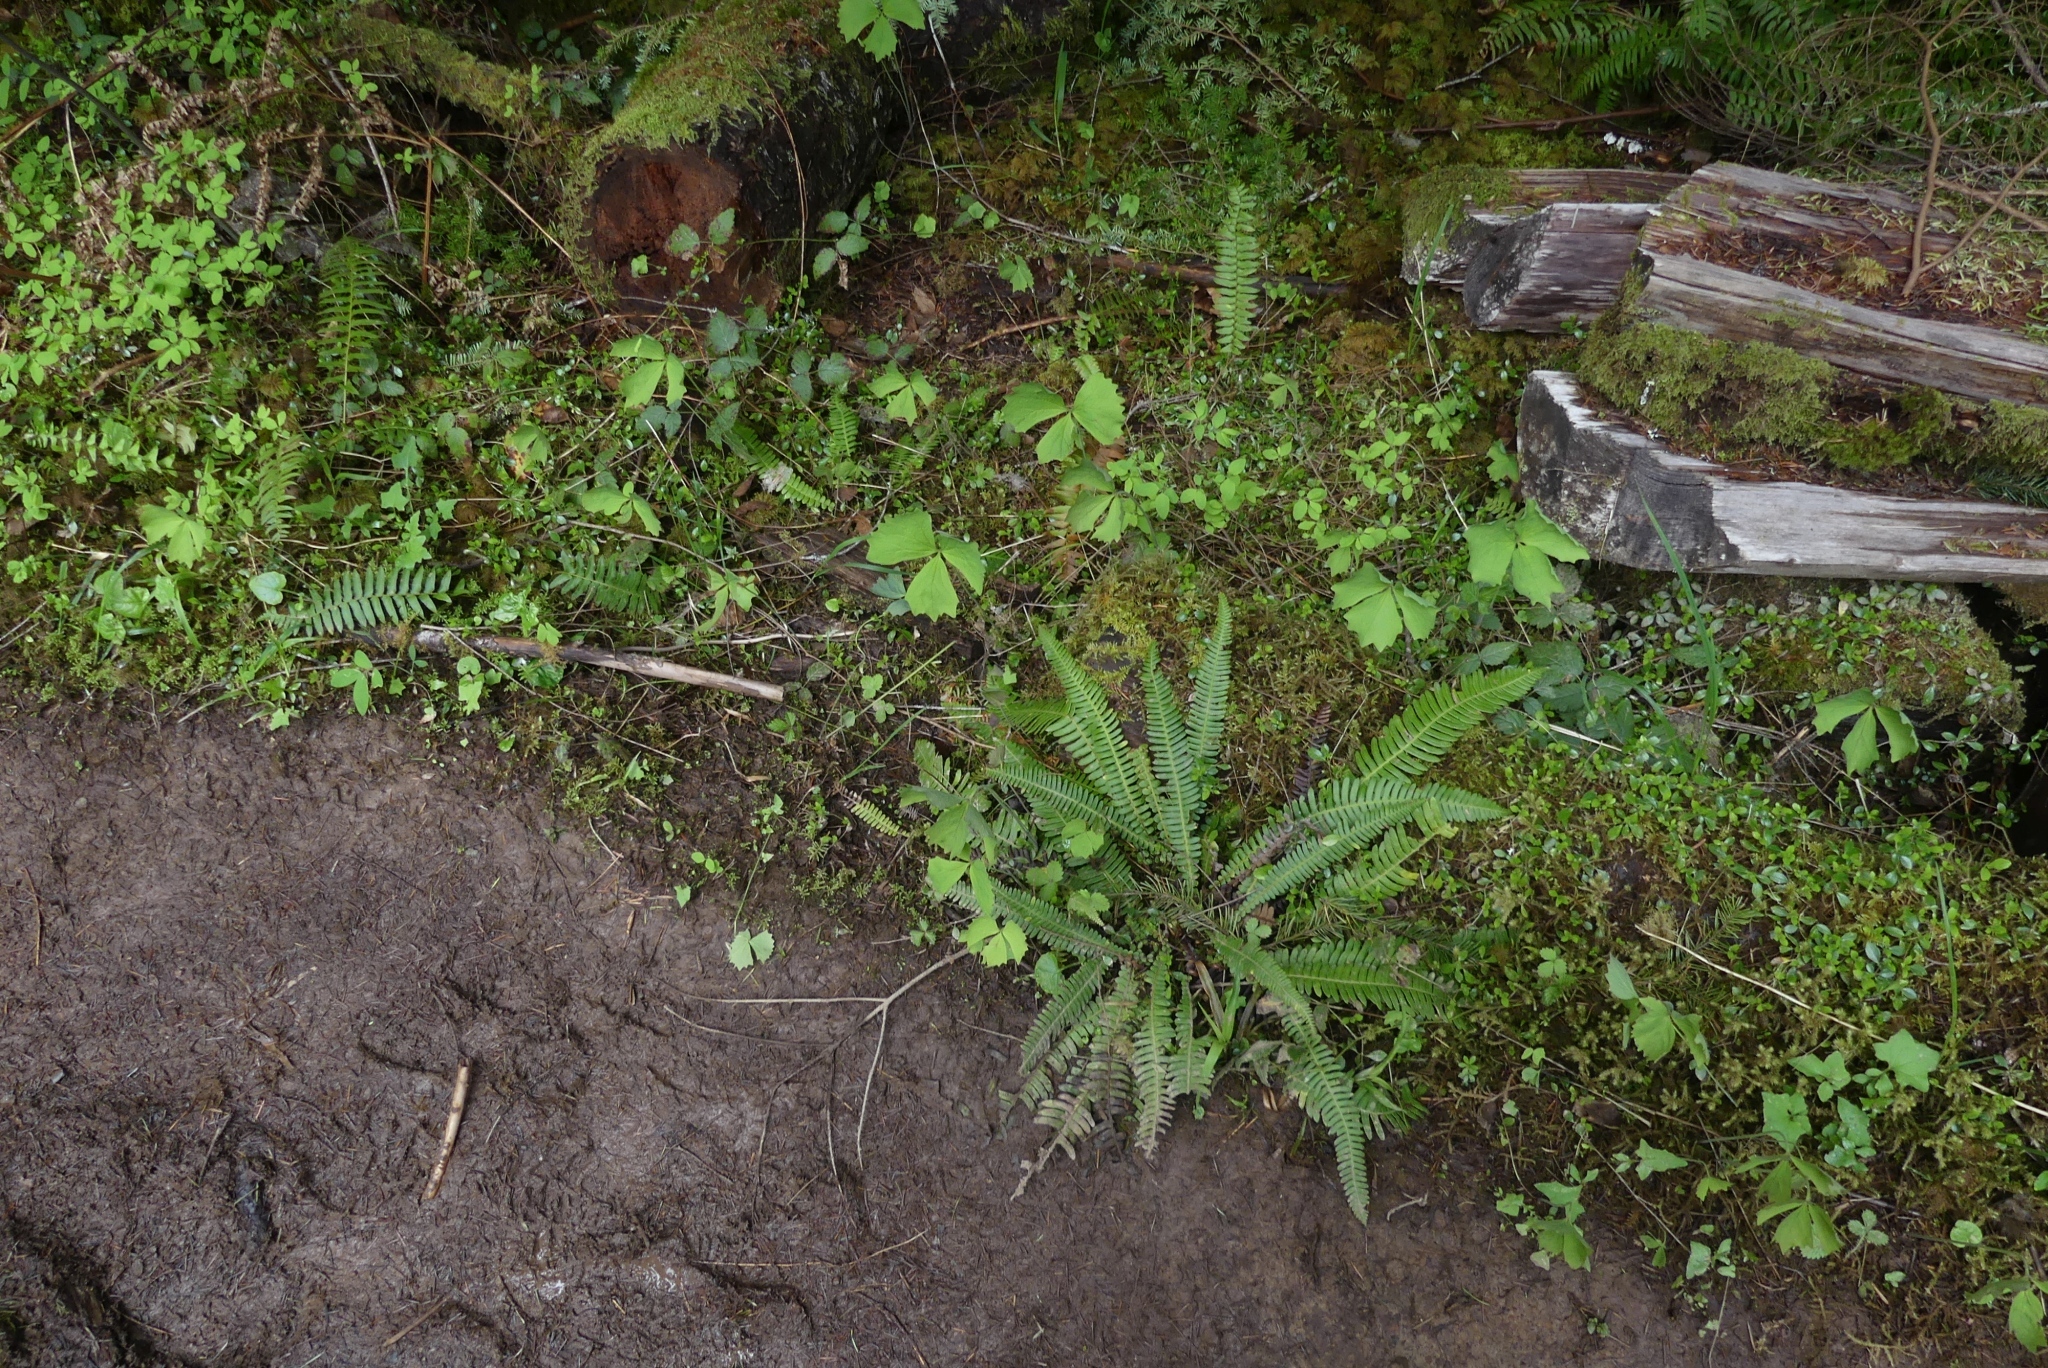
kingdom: Plantae
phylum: Tracheophyta
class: Polypodiopsida
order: Polypodiales
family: Blechnaceae
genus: Struthiopteris
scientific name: Struthiopteris spicant
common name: Deer fern
